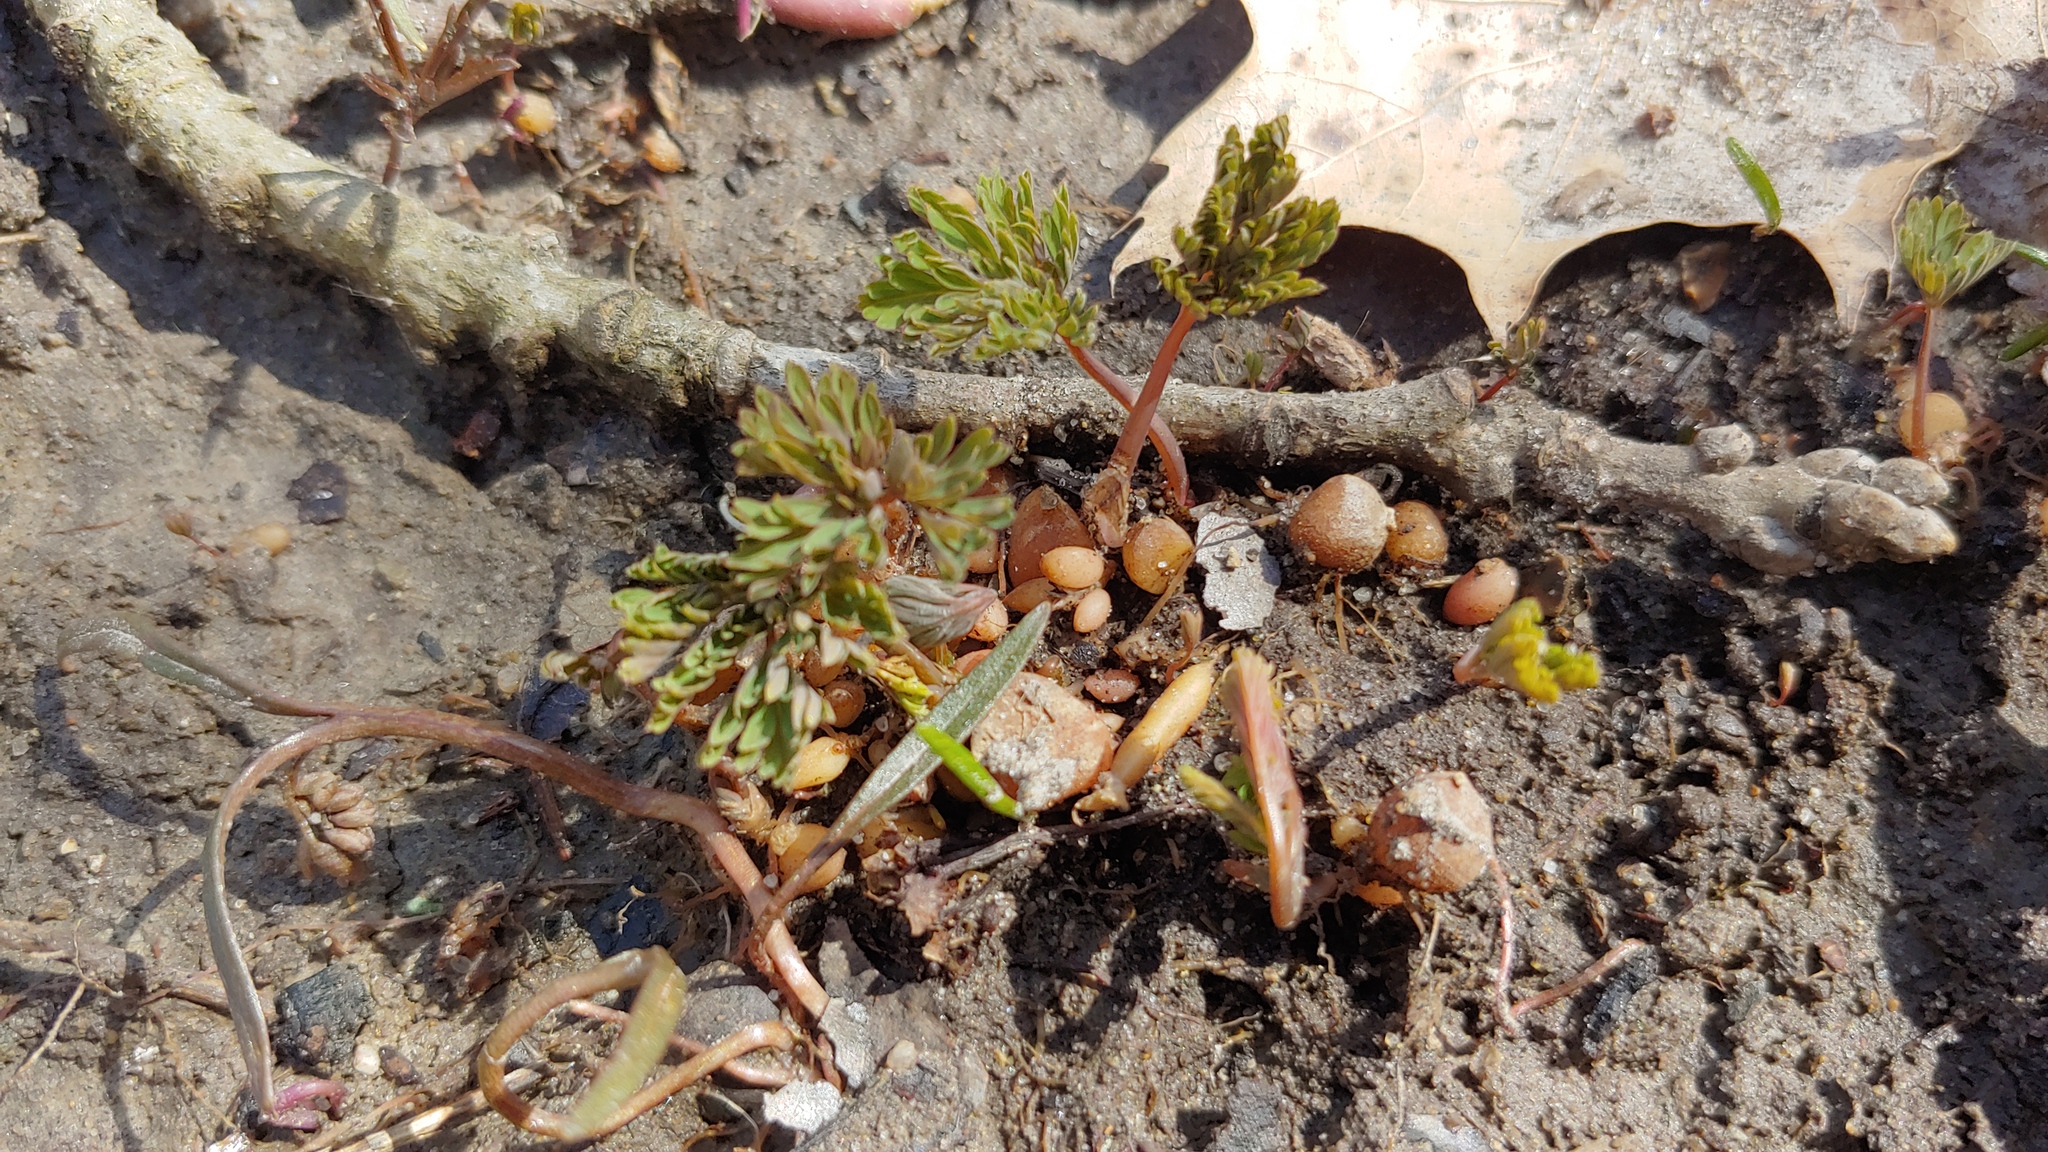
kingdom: Plantae
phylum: Tracheophyta
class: Magnoliopsida
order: Ranunculales
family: Papaveraceae
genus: Dicentra
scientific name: Dicentra cucullaria
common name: Dutchman's breeches
